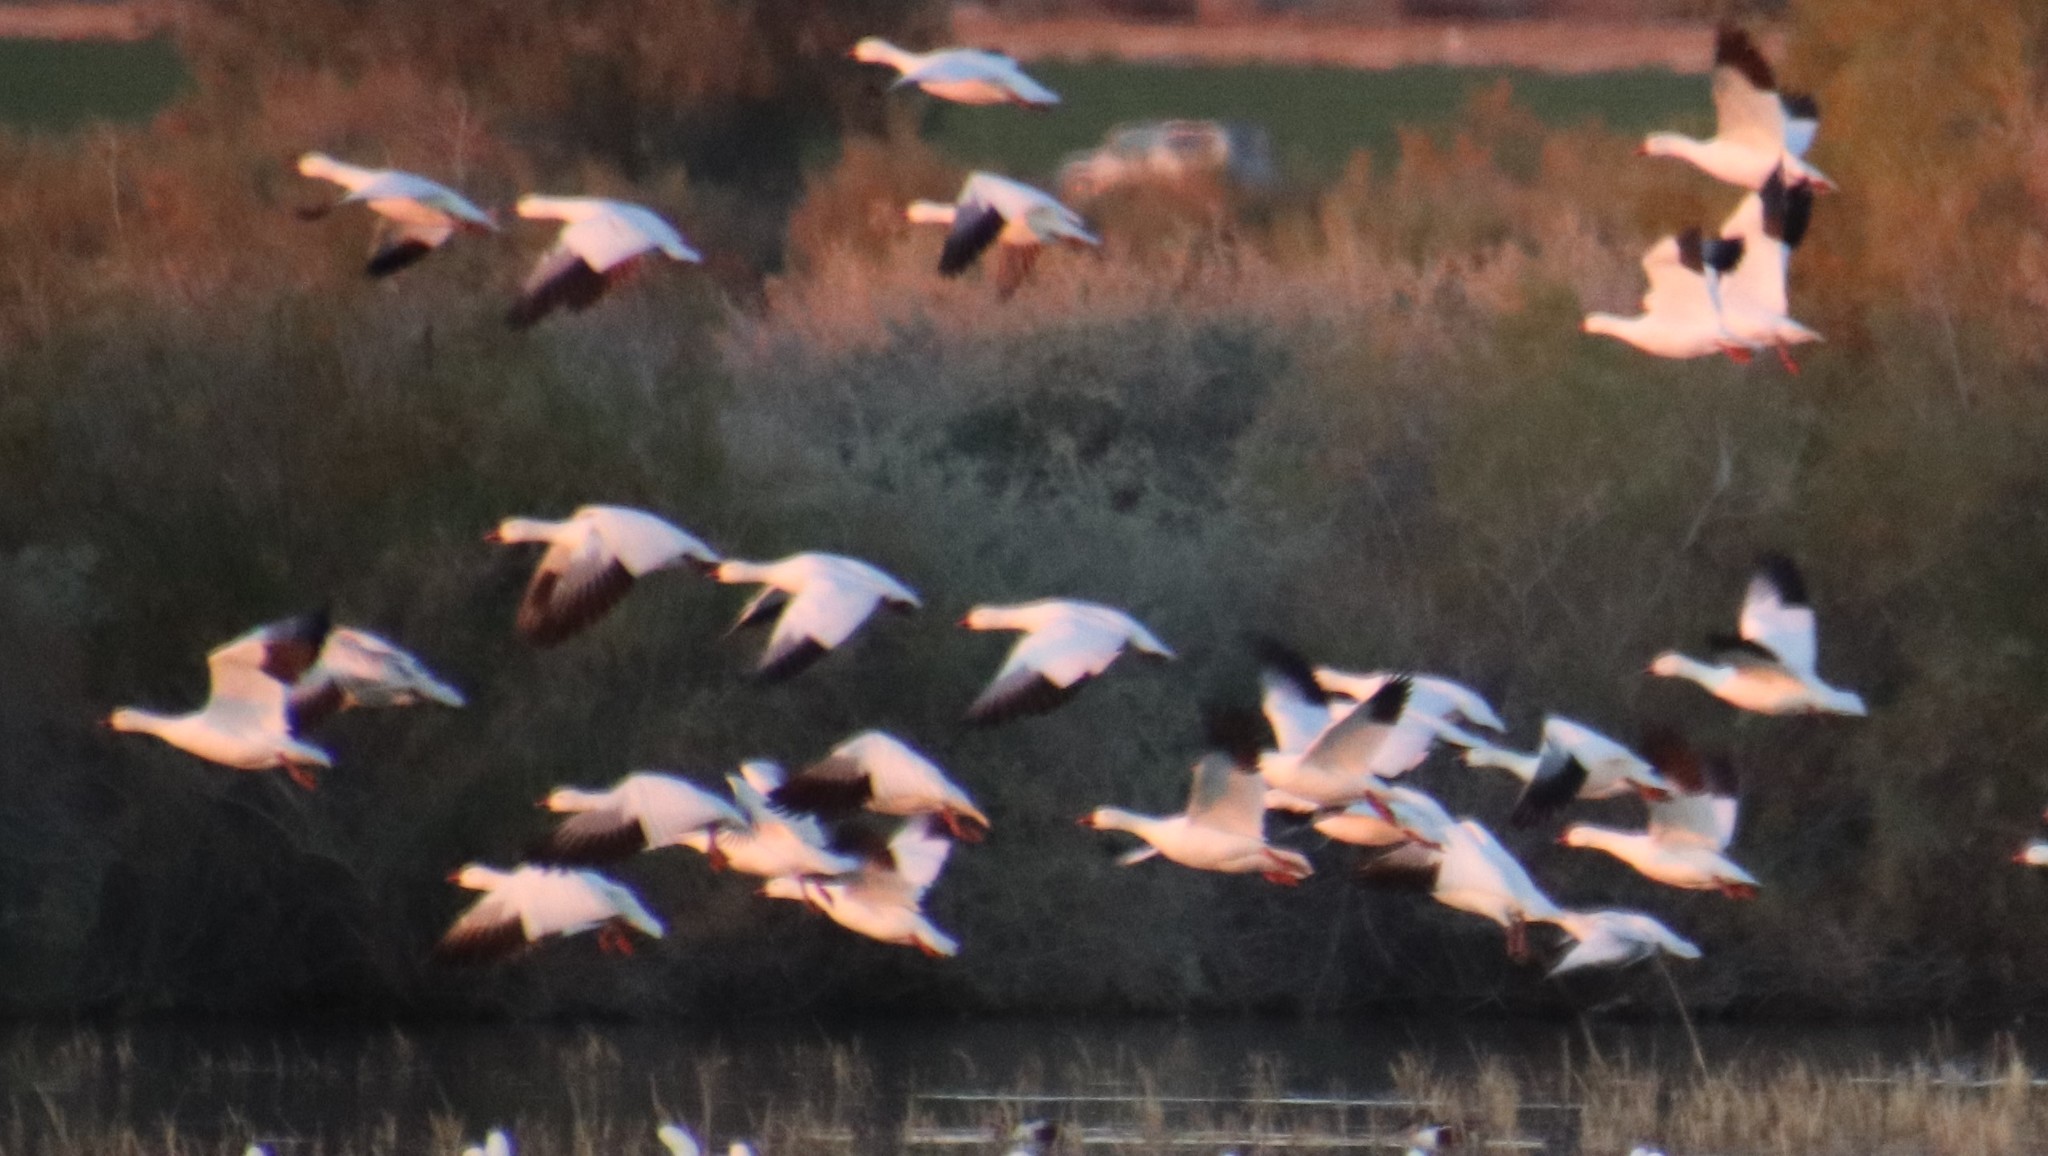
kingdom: Animalia
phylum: Chordata
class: Aves
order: Anseriformes
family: Anatidae
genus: Anser
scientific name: Anser caerulescens
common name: Snow goose
